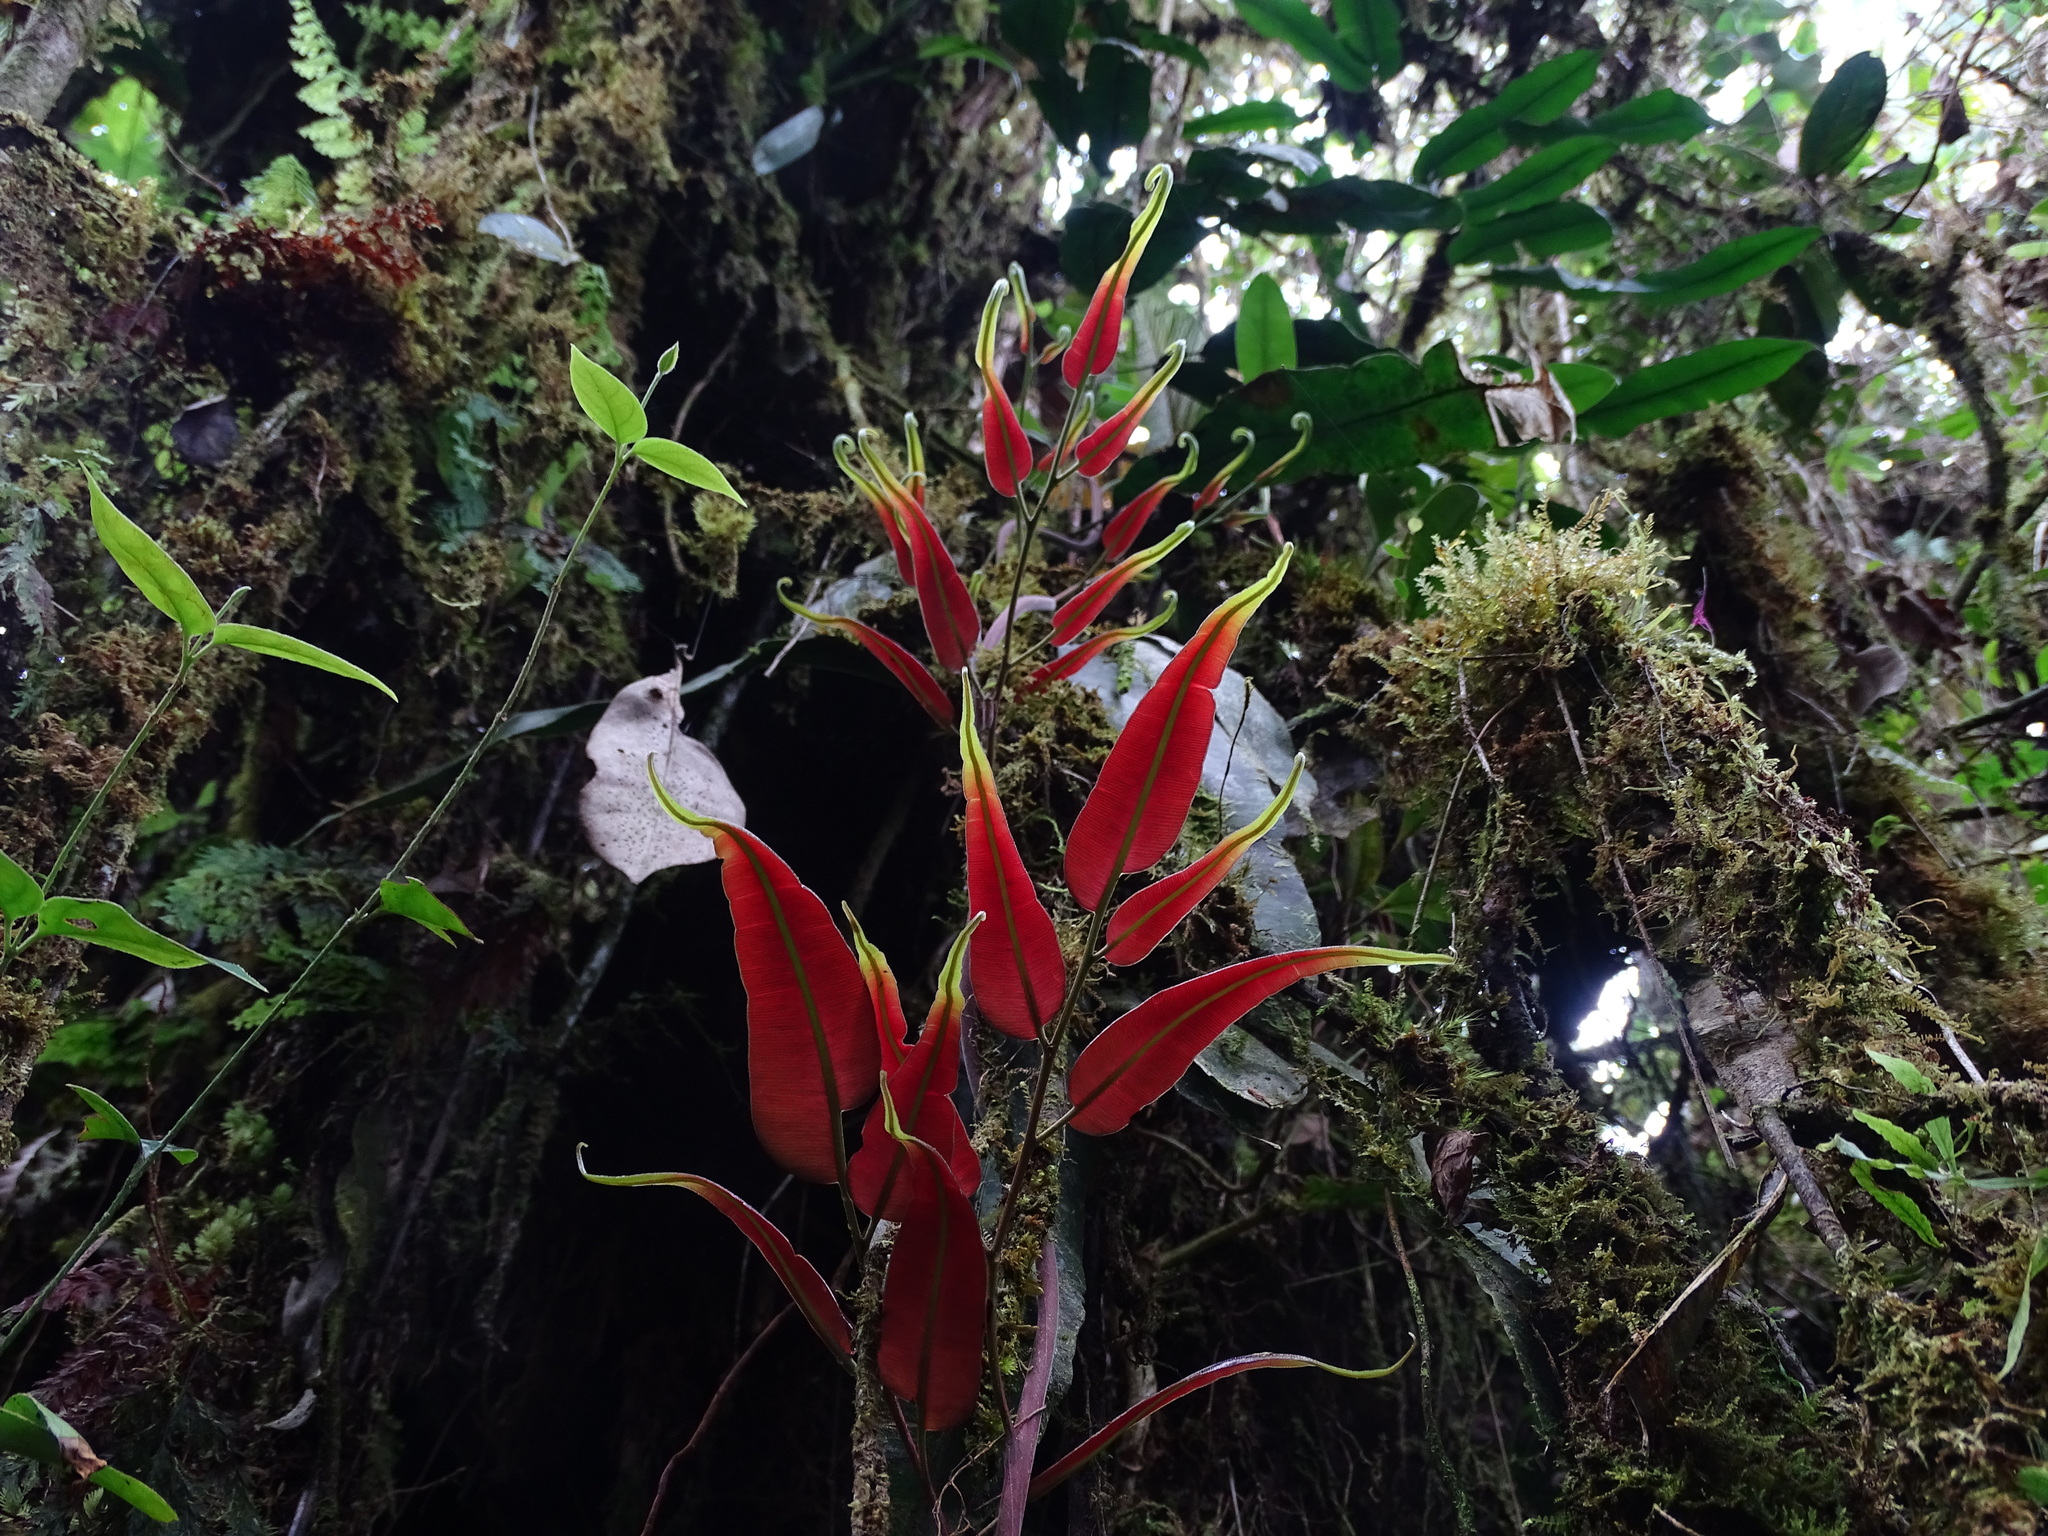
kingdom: Plantae
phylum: Tracheophyta
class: Polypodiopsida
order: Polypodiales
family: Blechnaceae
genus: Salpichlaena
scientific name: Salpichlaena volubilis
